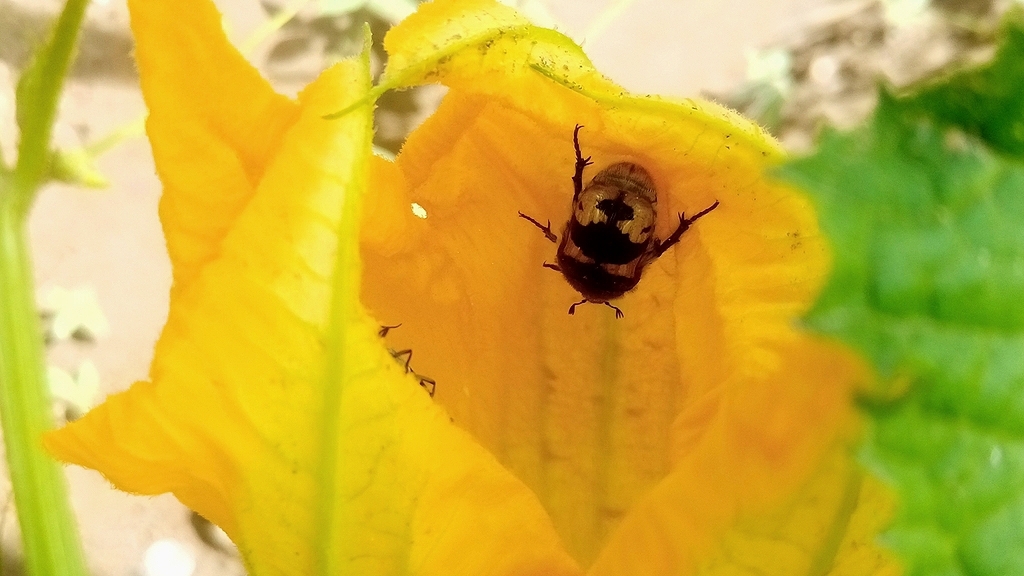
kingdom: Animalia
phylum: Arthropoda
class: Insecta
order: Coleoptera
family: Scarabaeidae
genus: Euphoria
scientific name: Euphoria basalis
